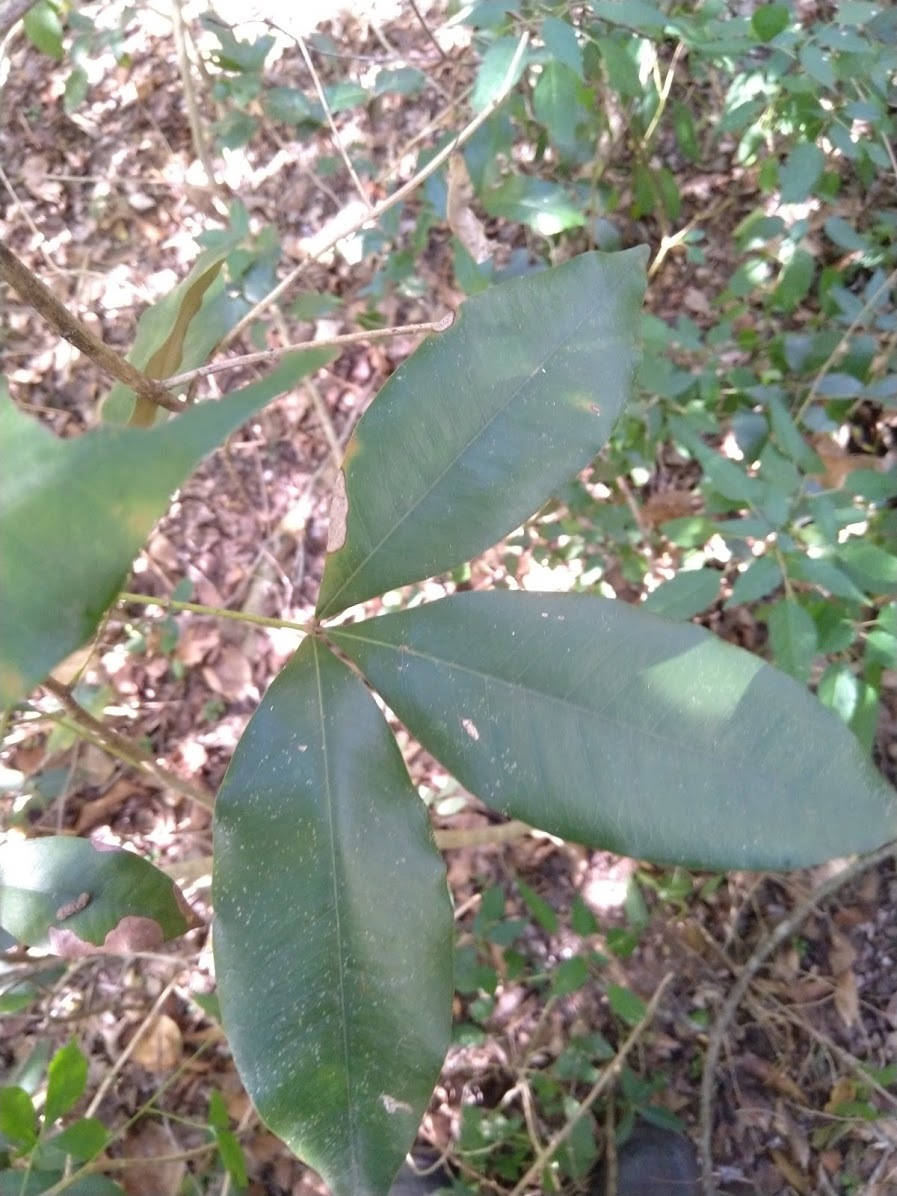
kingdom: Plantae
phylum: Tracheophyta
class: Magnoliopsida
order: Malvales
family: Malvaceae
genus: Argyrodendron
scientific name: Argyrodendron trifoliolatum
